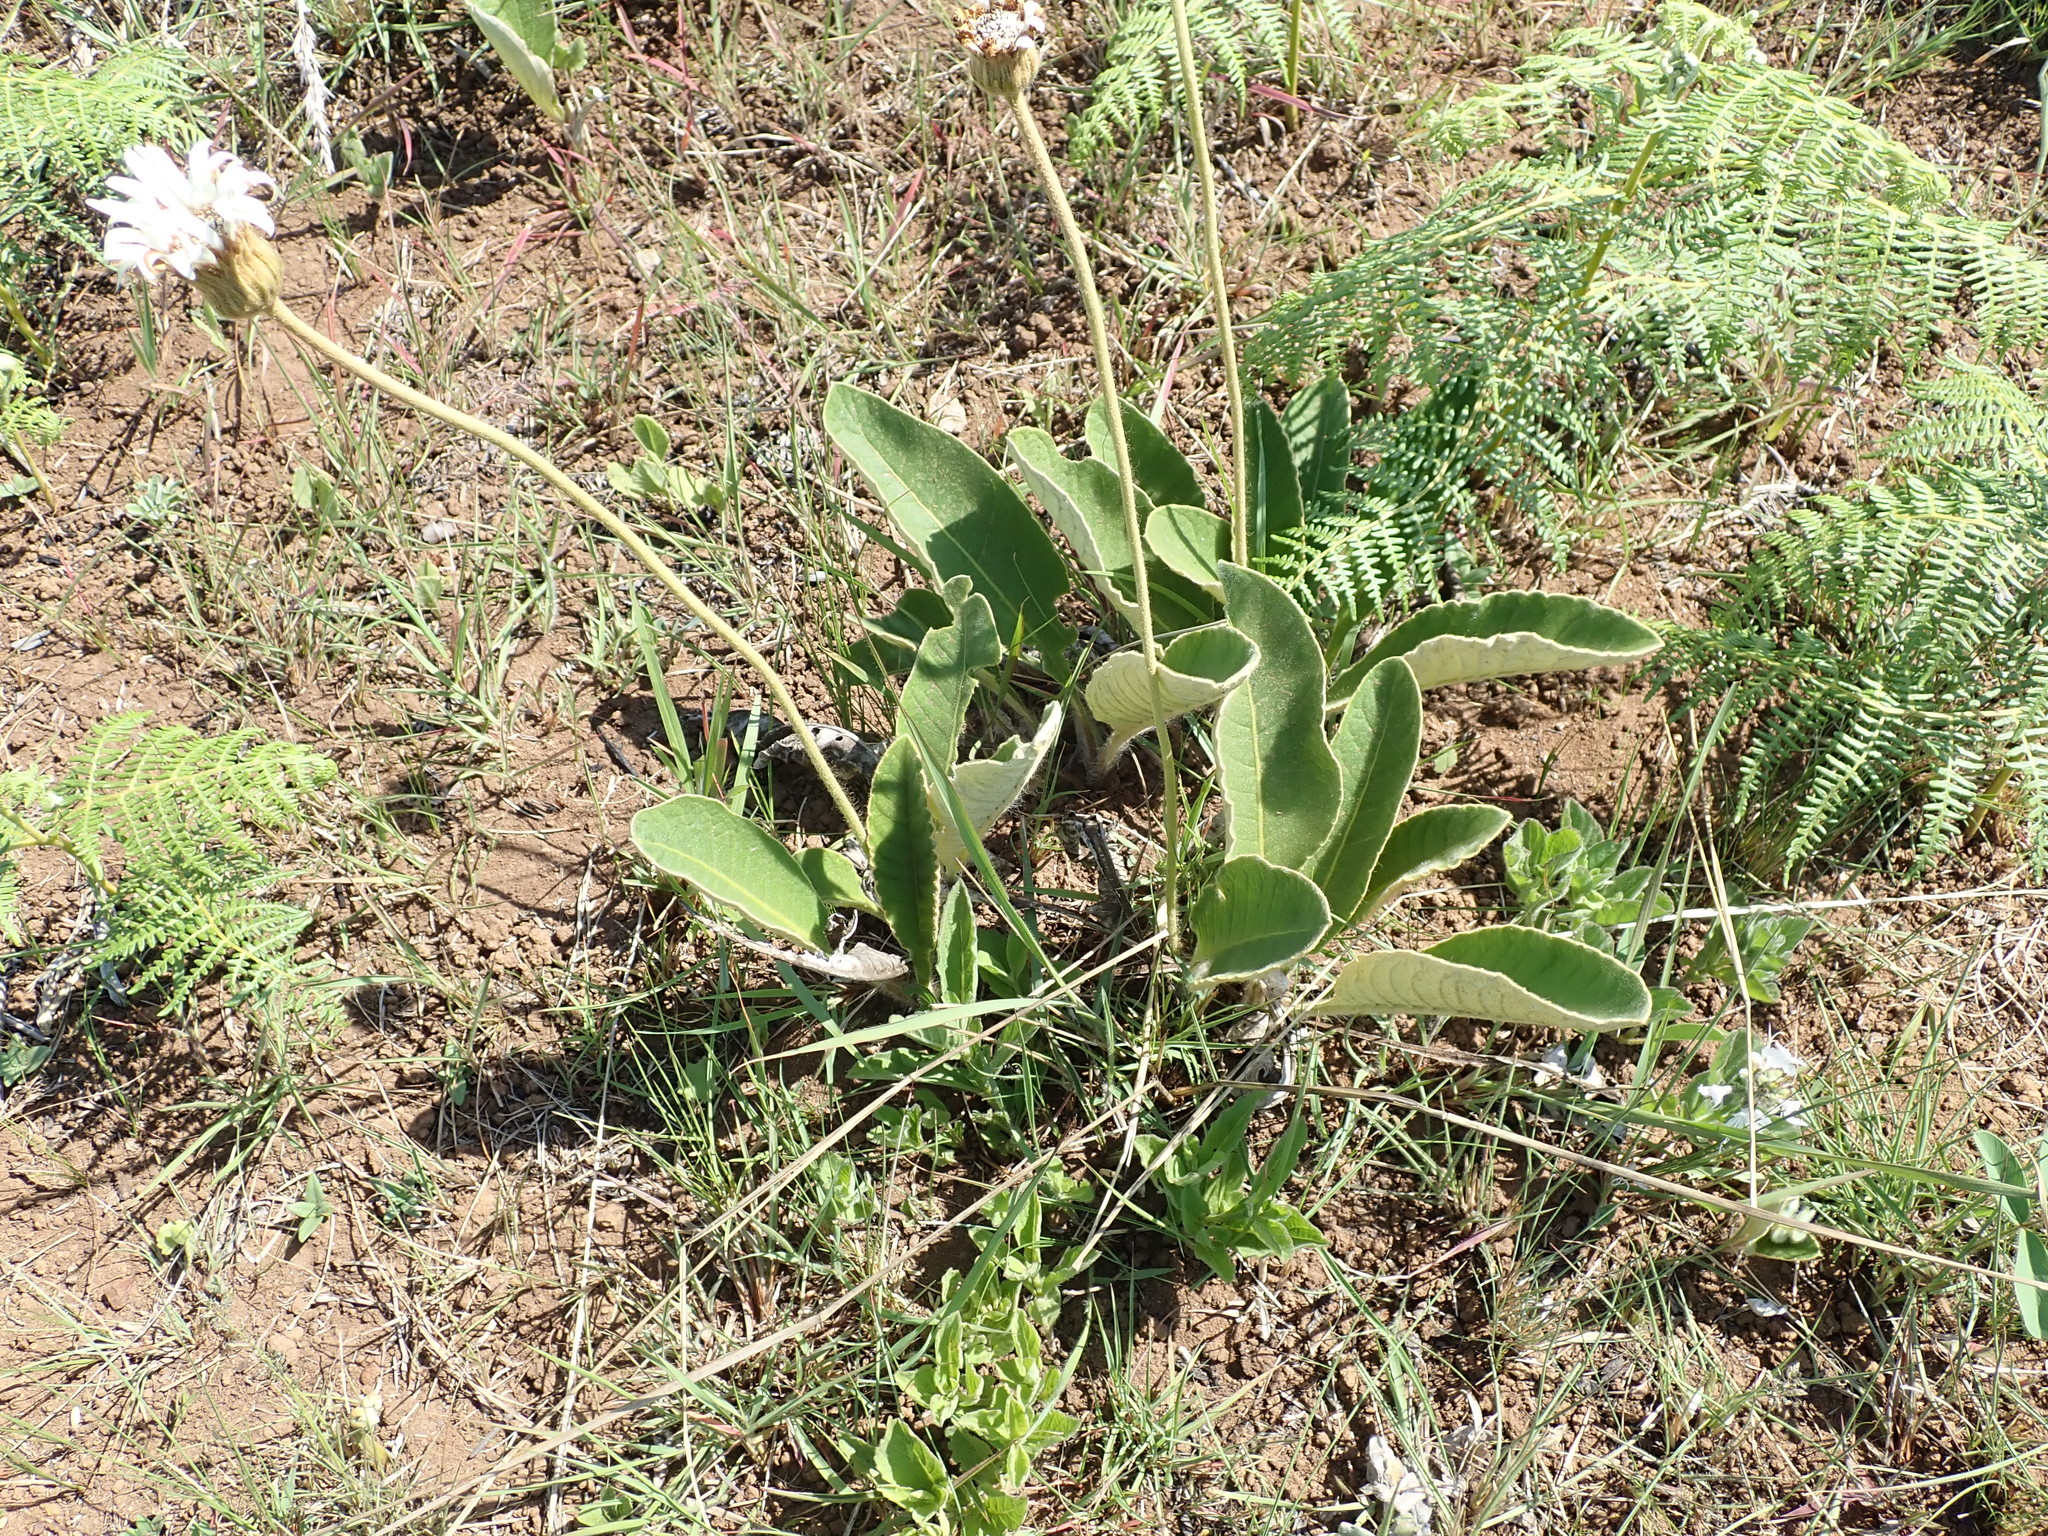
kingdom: Plantae
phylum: Tracheophyta
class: Magnoliopsida
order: Asterales
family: Asteraceae
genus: Gerbera
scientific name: Gerbera ambigua
